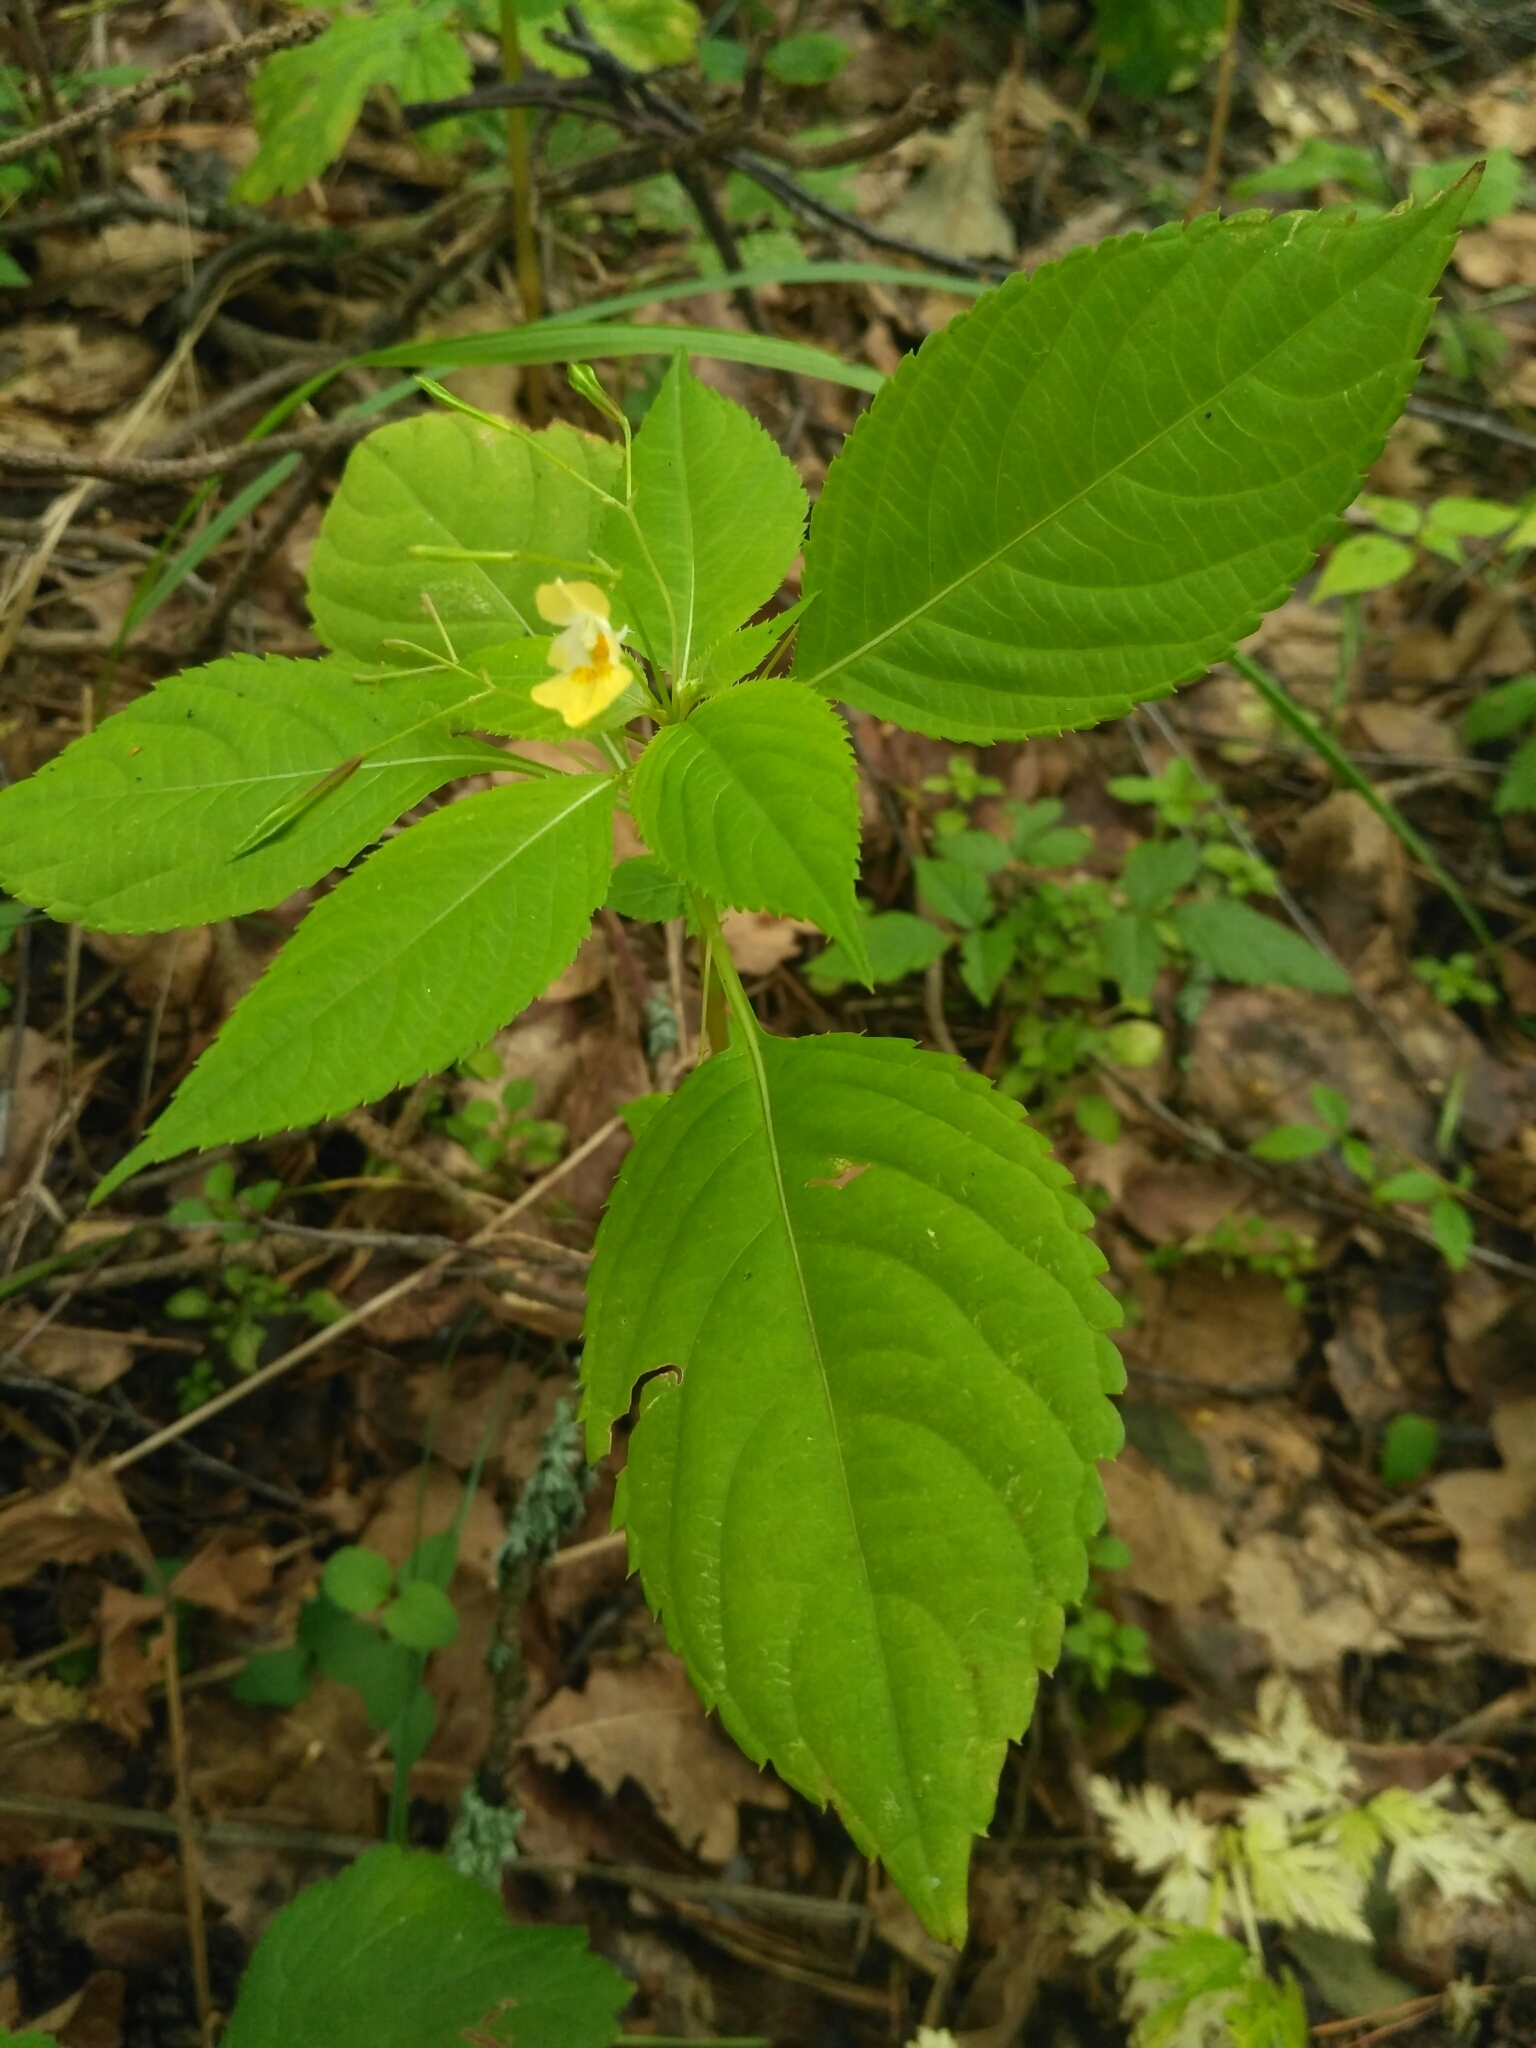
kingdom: Plantae
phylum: Tracheophyta
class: Magnoliopsida
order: Ericales
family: Balsaminaceae
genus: Impatiens
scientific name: Impatiens parviflora
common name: Small balsam
